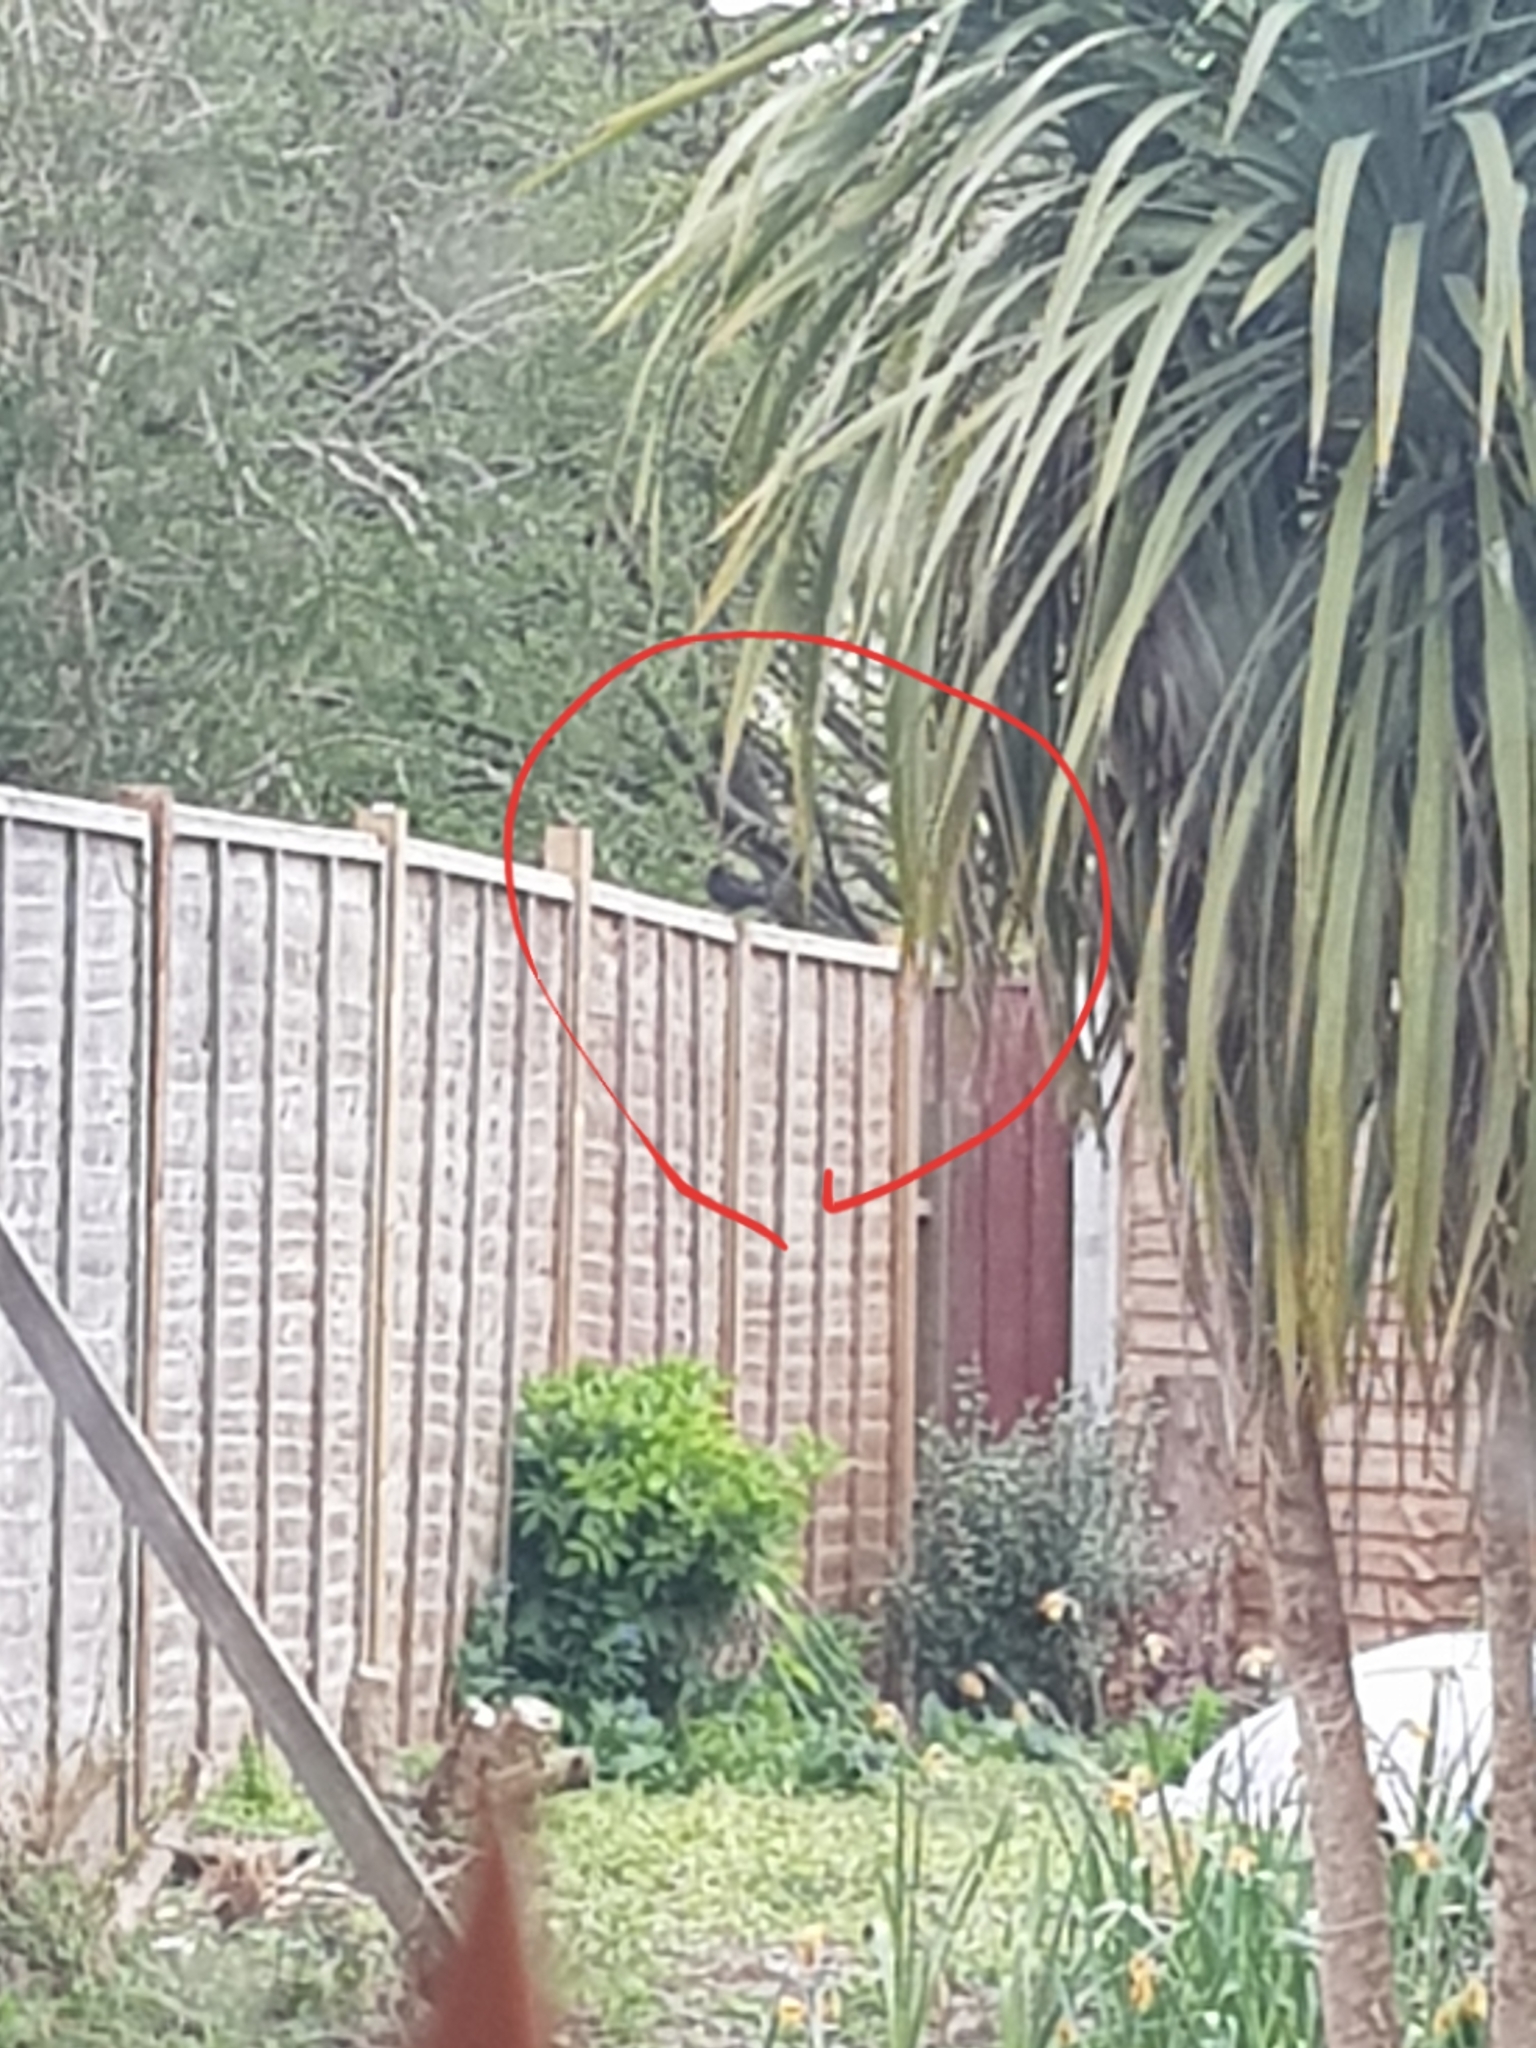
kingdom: Animalia
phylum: Chordata
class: Aves
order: Passeriformes
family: Turdidae
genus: Turdus
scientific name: Turdus merula
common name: Common blackbird
